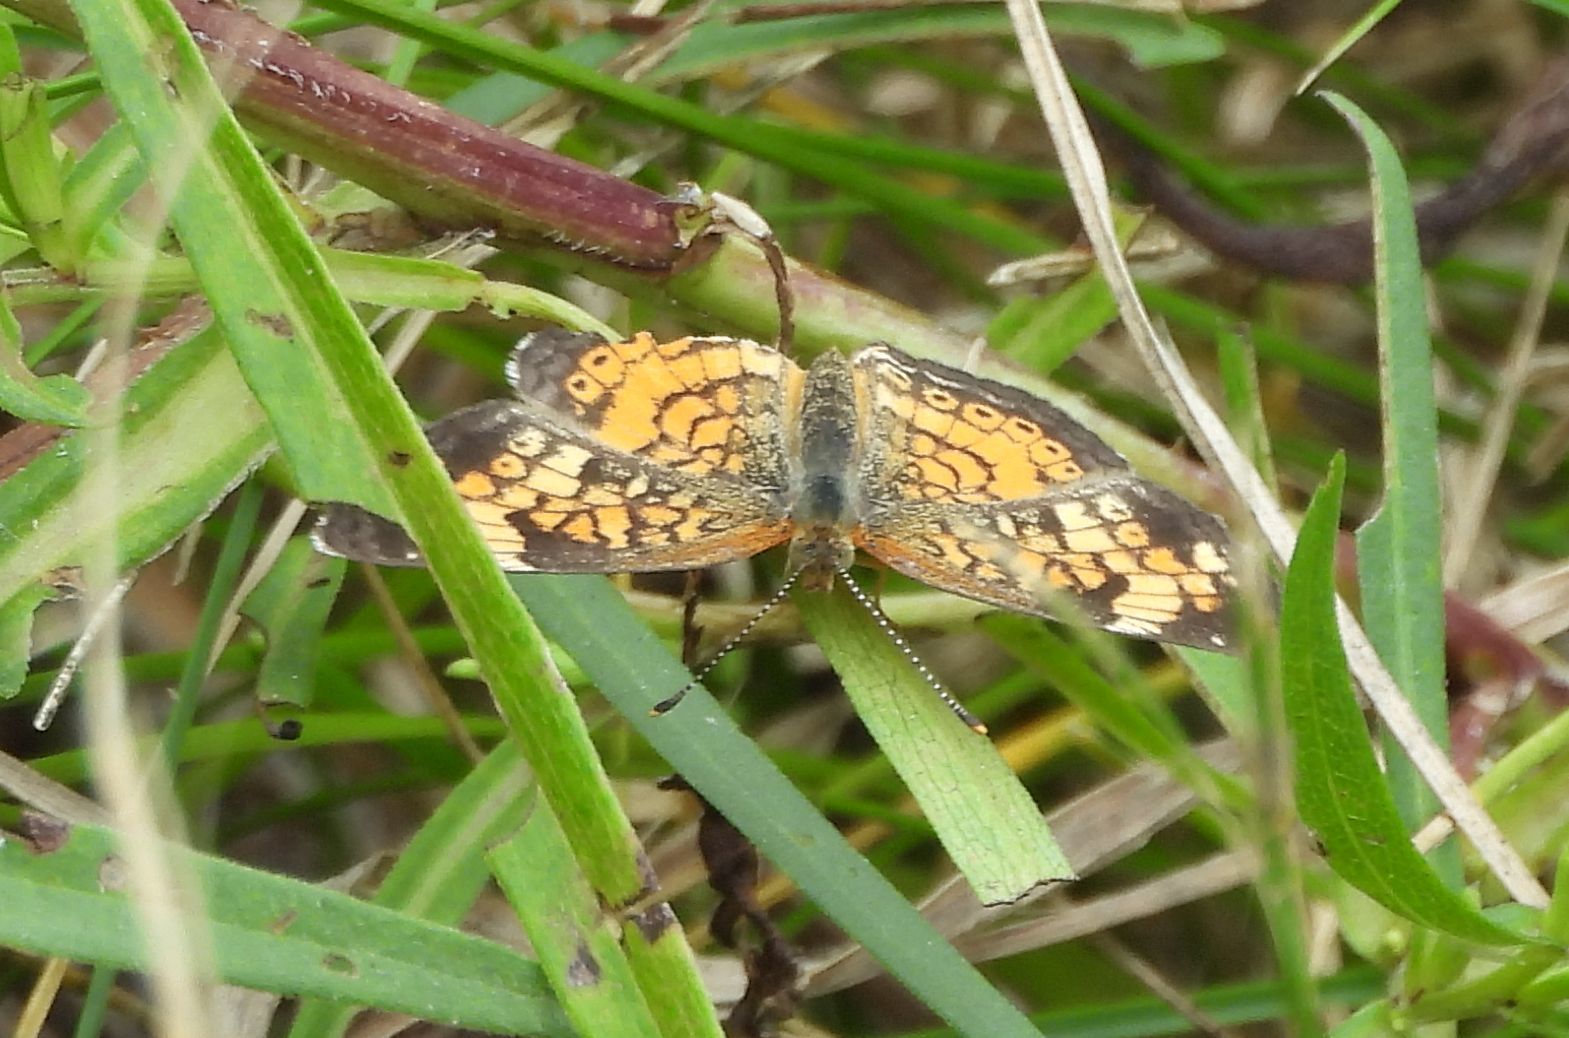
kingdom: Animalia
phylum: Arthropoda
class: Insecta
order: Lepidoptera
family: Nymphalidae
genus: Phyciodes
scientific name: Phyciodes tharos
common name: Pearl crescent
